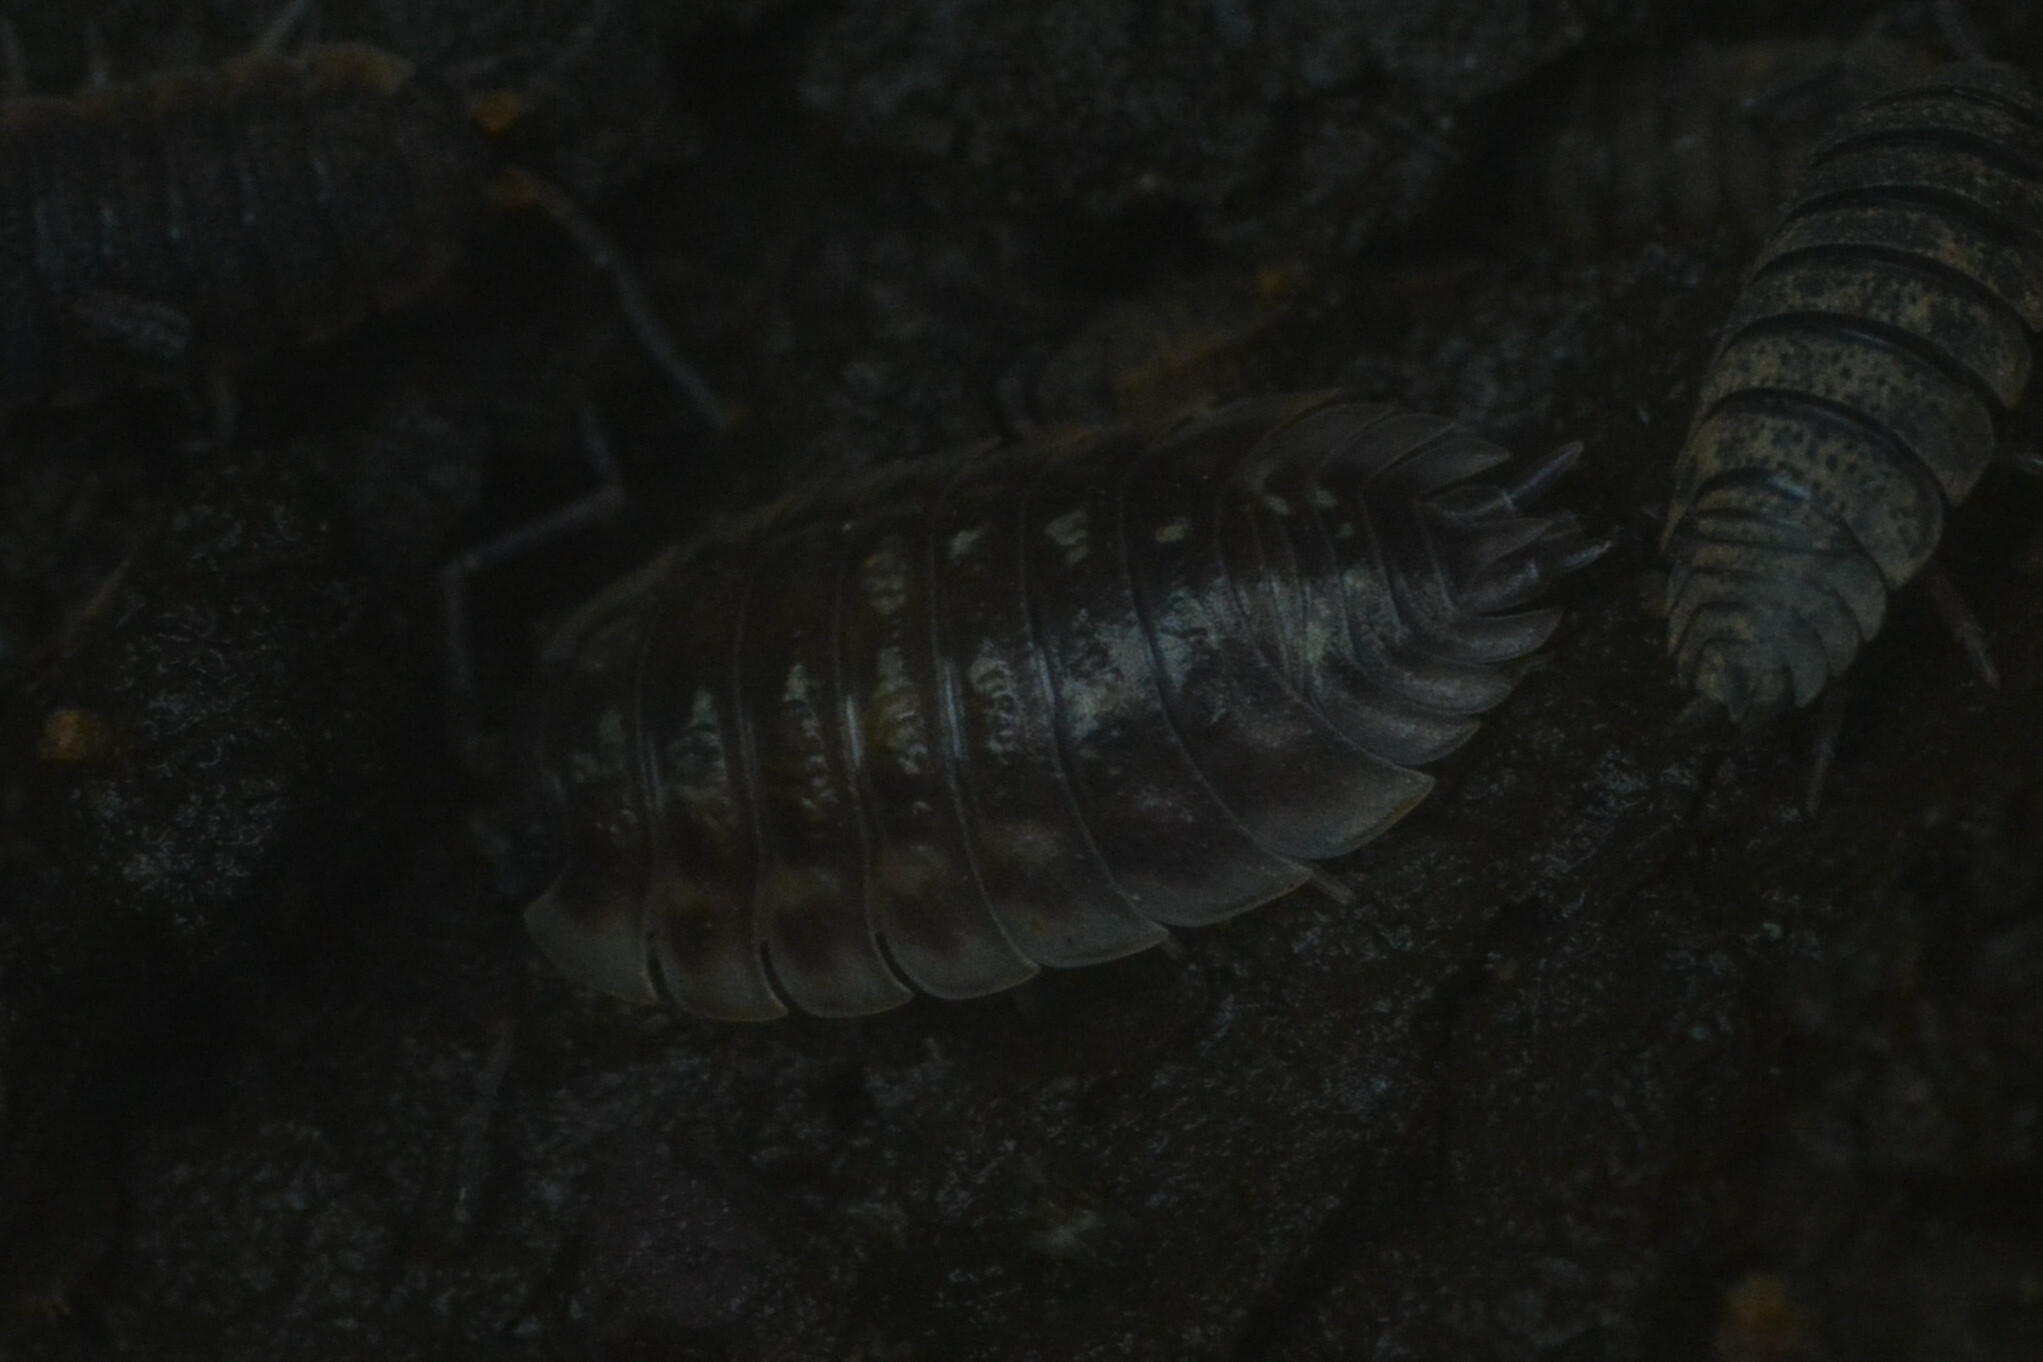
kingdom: Animalia
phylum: Arthropoda
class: Malacostraca
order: Isopoda
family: Oniscidae
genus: Oniscus
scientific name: Oniscus asellus
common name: Common shiny woodlouse
